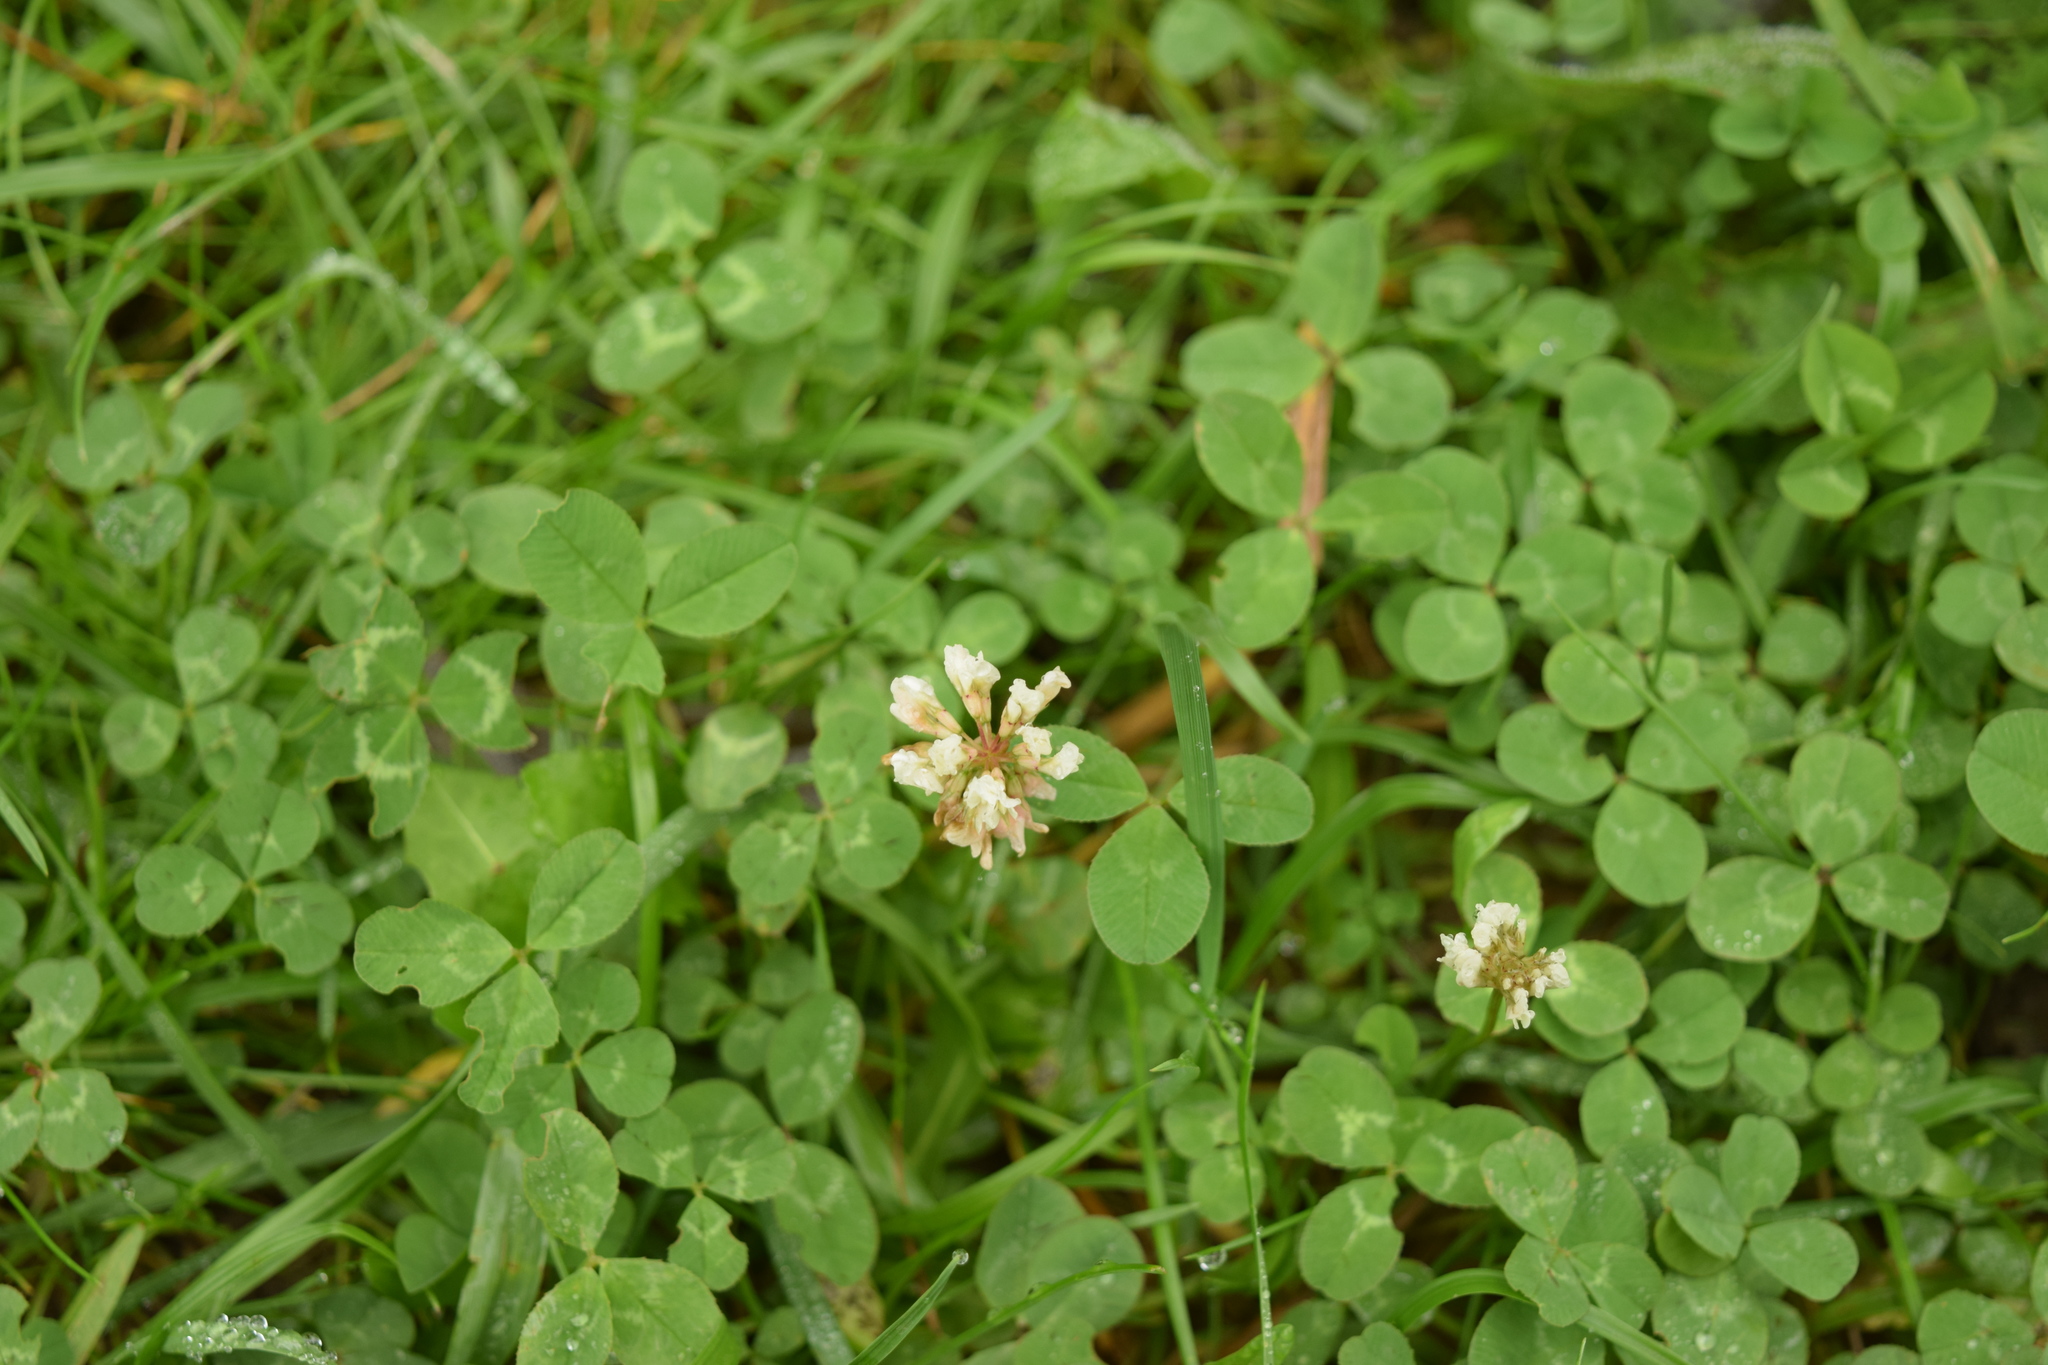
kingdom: Plantae
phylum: Tracheophyta
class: Magnoliopsida
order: Fabales
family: Fabaceae
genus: Trifolium
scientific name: Trifolium repens
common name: White clover
